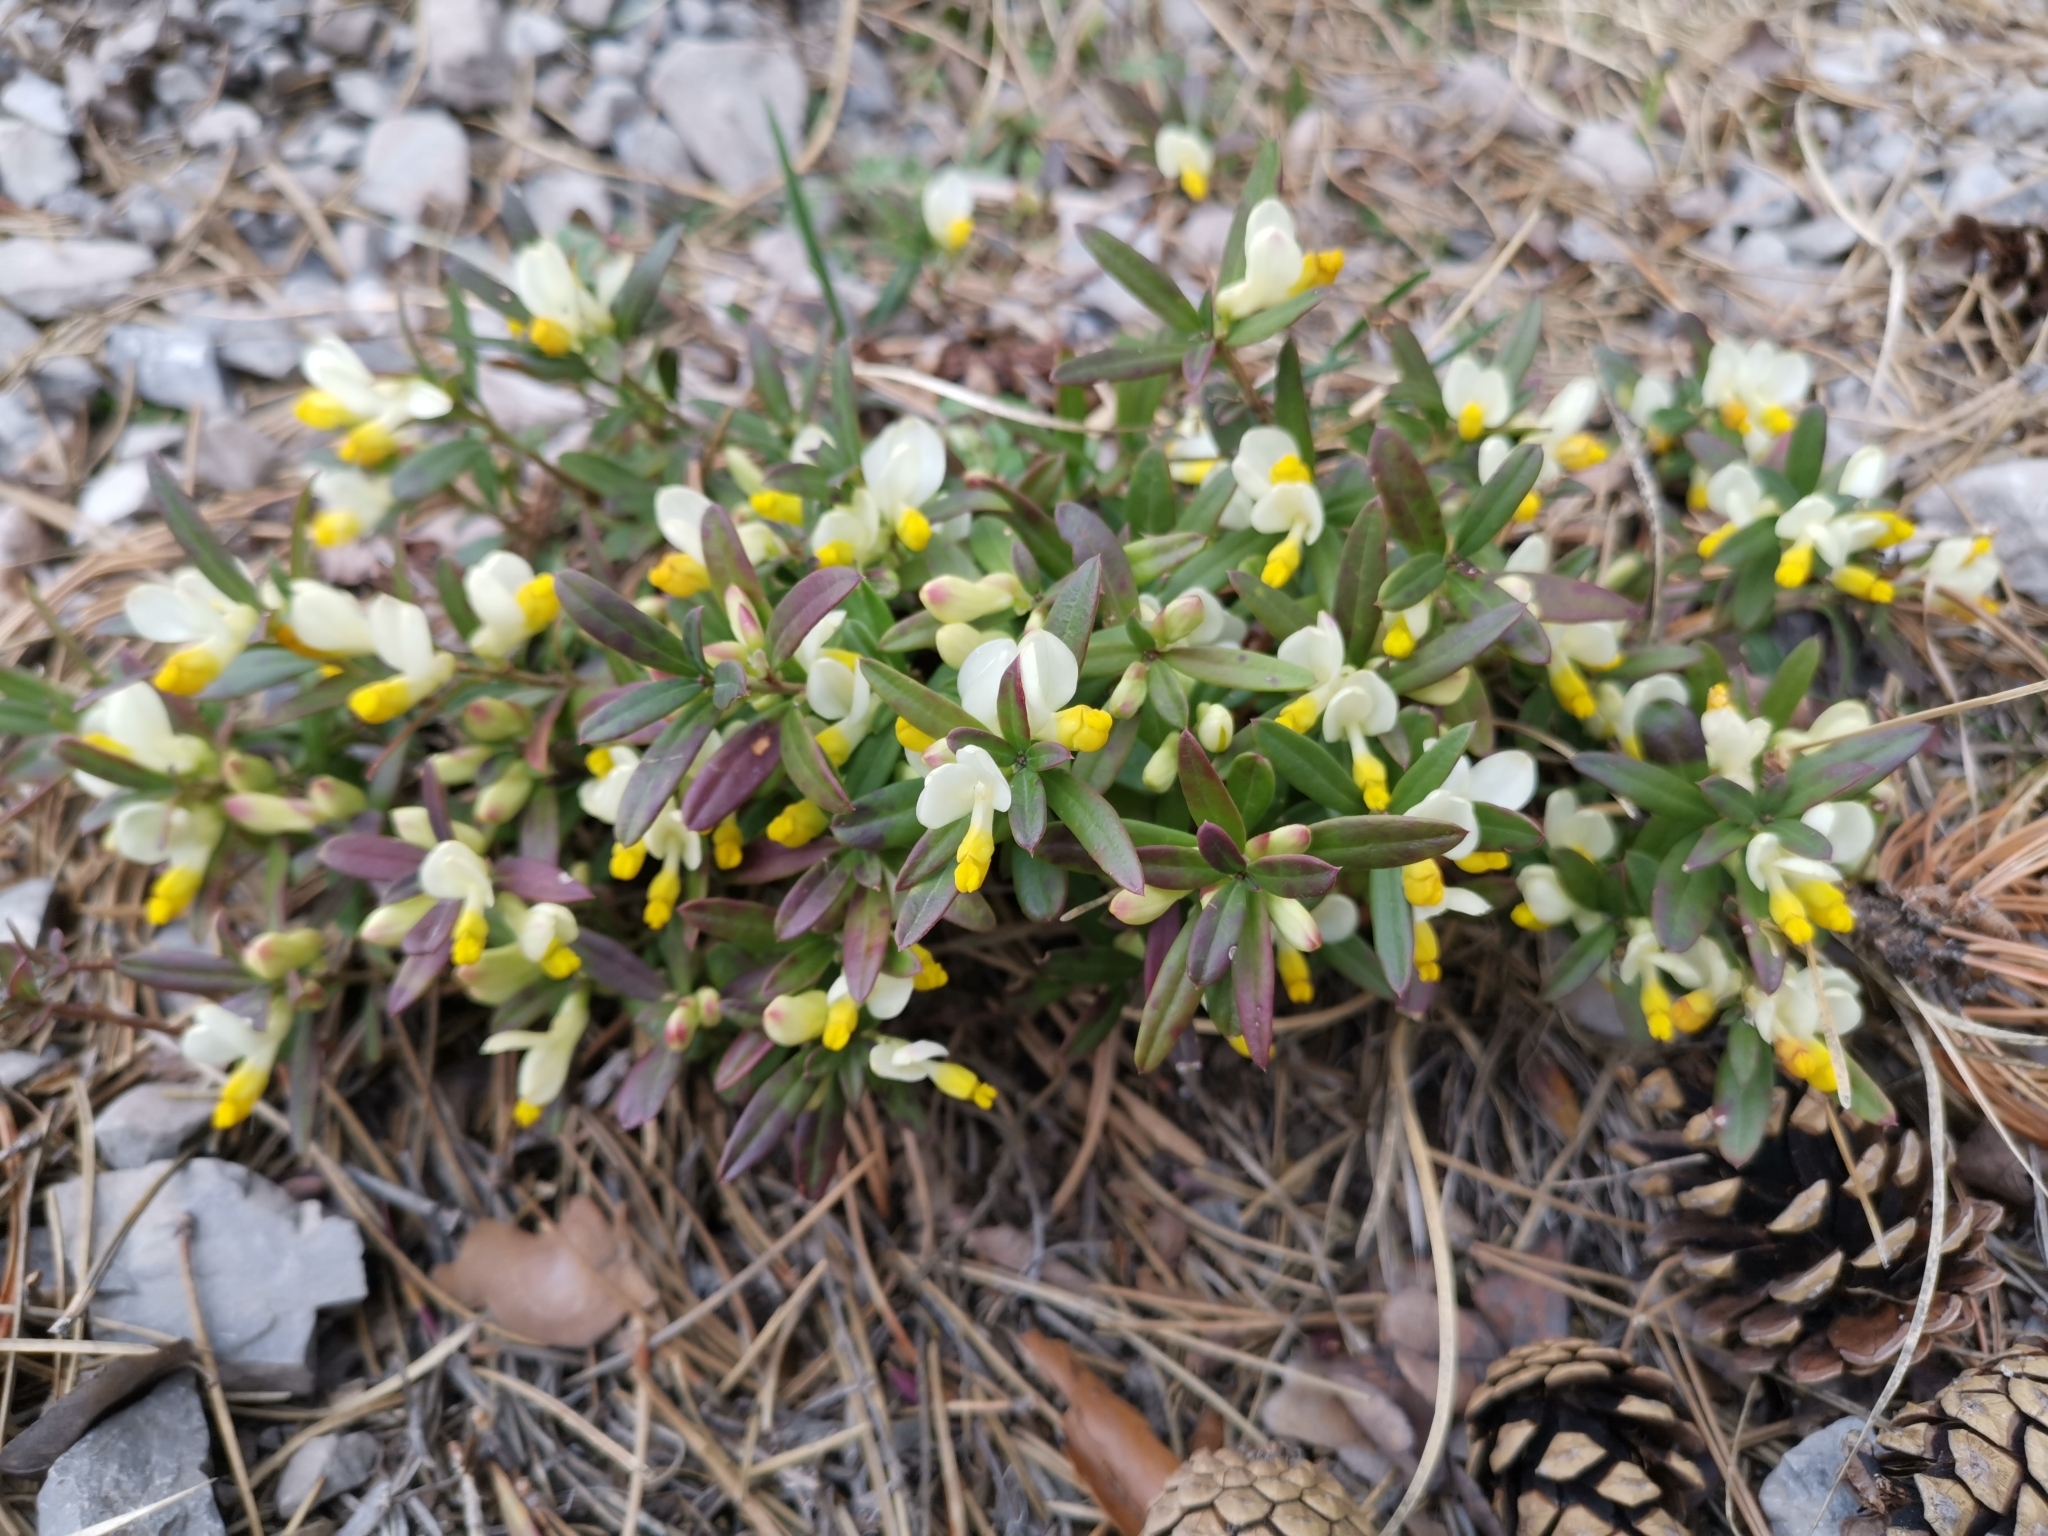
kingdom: Plantae
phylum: Tracheophyta
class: Magnoliopsida
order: Fabales
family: Polygalaceae
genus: Polygaloides
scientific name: Polygaloides chamaebuxus
